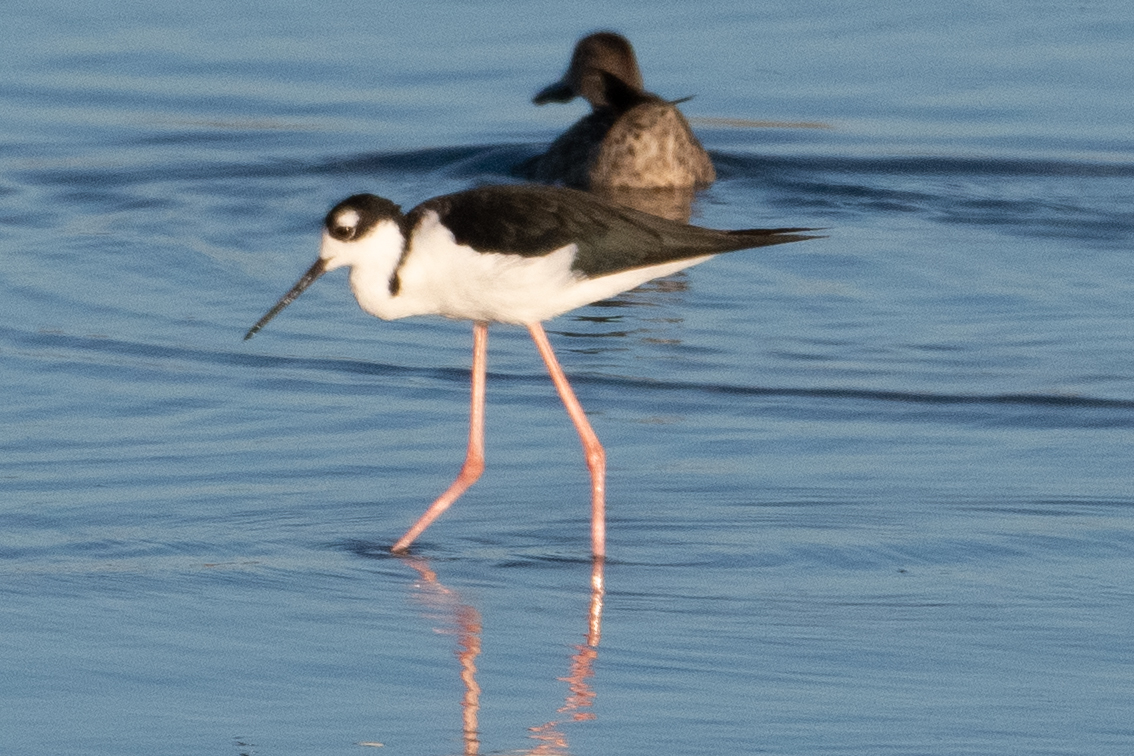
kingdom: Animalia
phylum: Chordata
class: Aves
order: Charadriiformes
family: Recurvirostridae
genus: Himantopus
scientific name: Himantopus mexicanus
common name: Black-necked stilt
